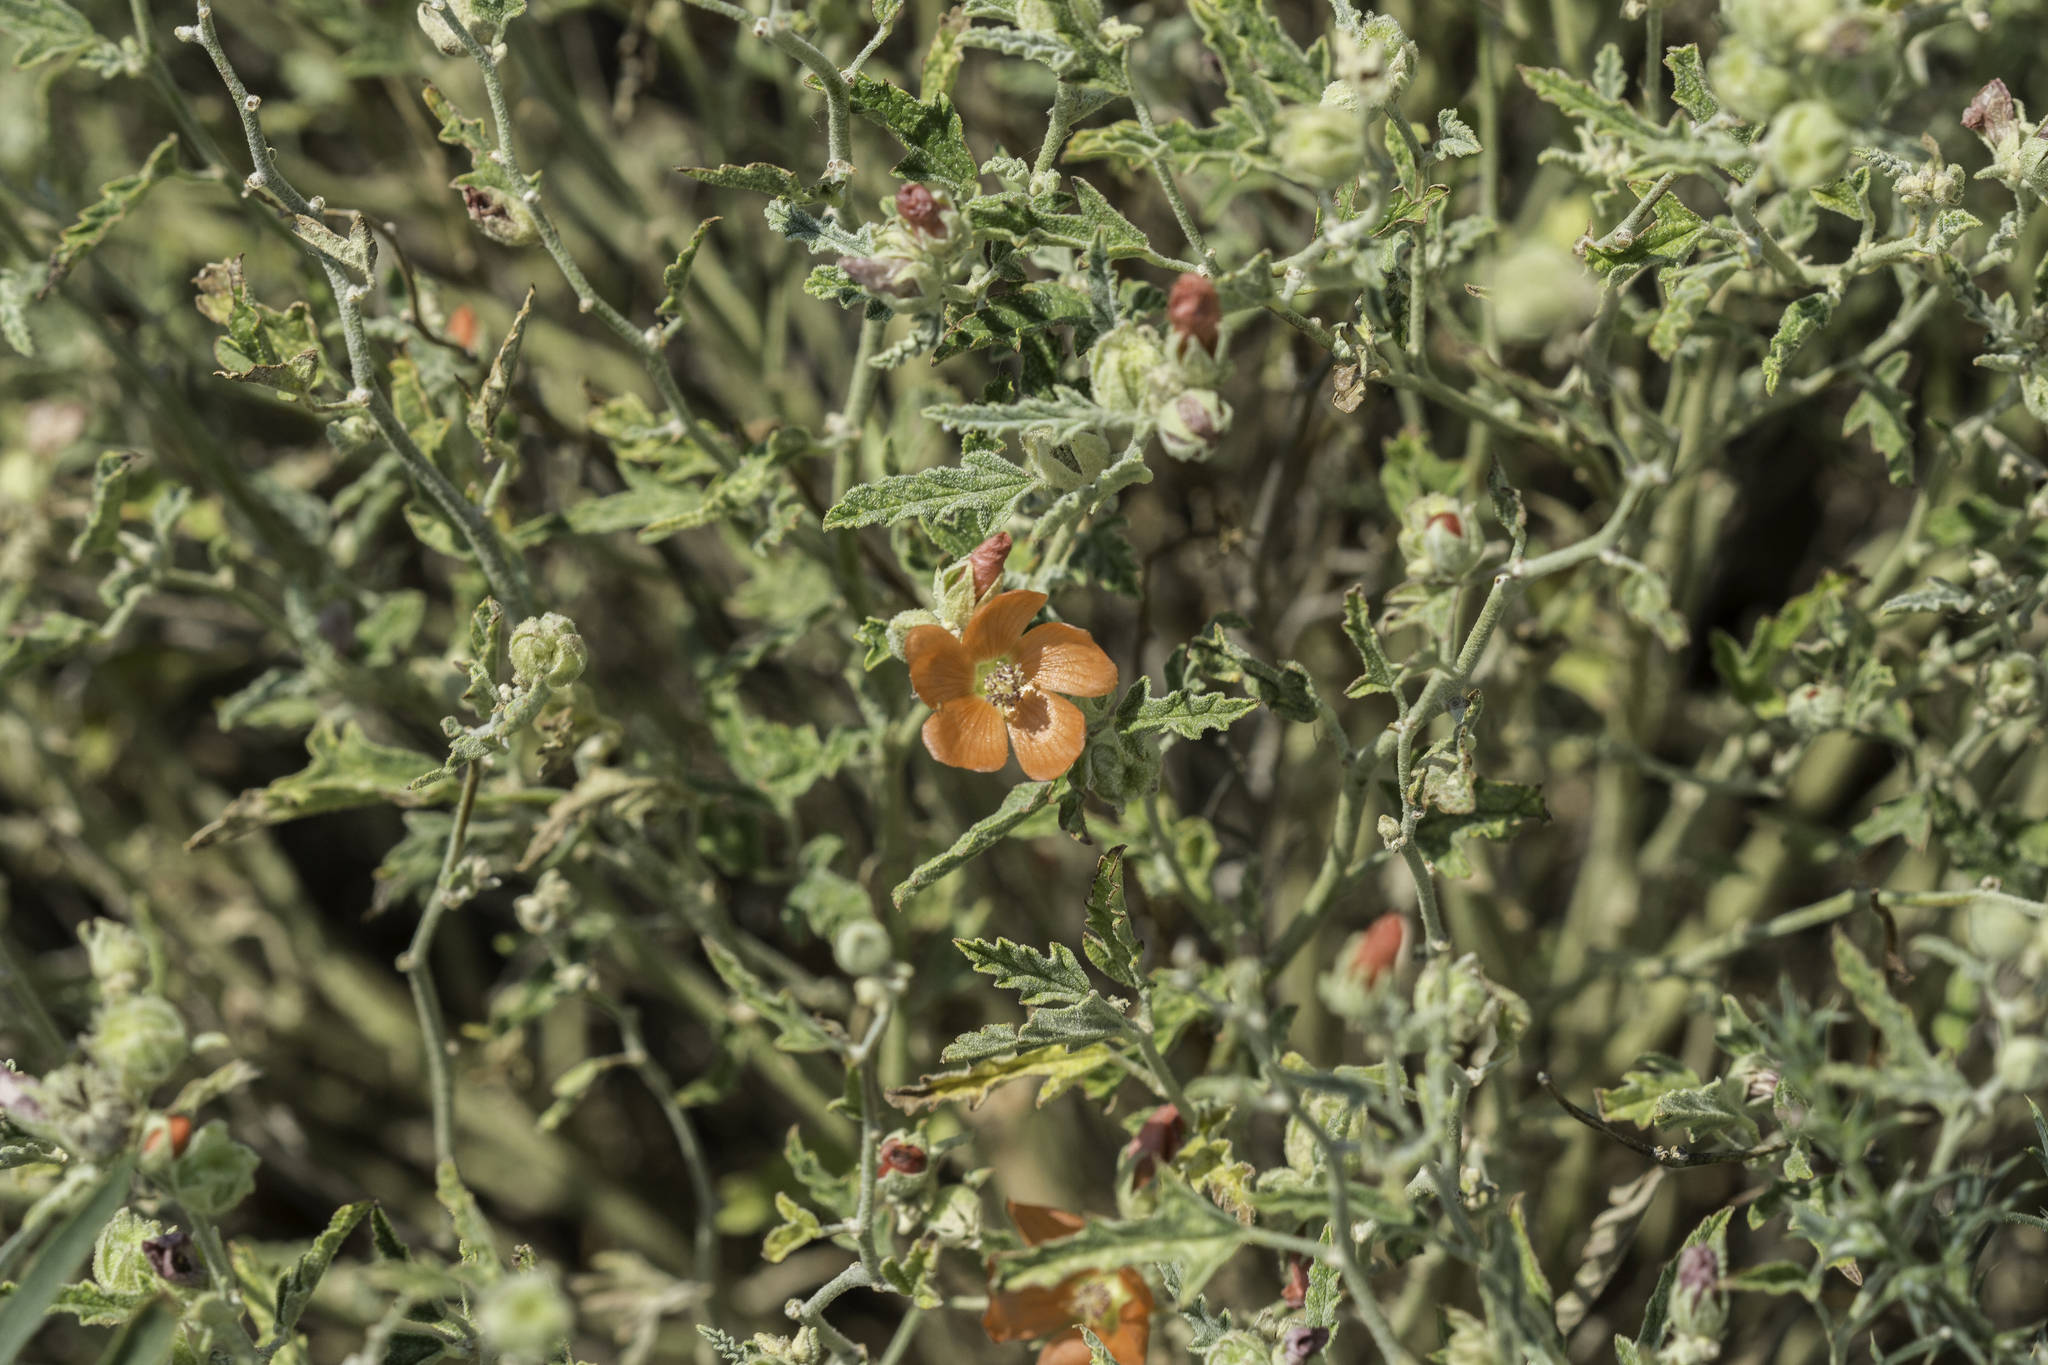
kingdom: Plantae
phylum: Tracheophyta
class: Magnoliopsida
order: Malvales
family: Malvaceae
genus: Sphaeralcea
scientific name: Sphaeralcea angustifolia
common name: Copper globe-mallow
